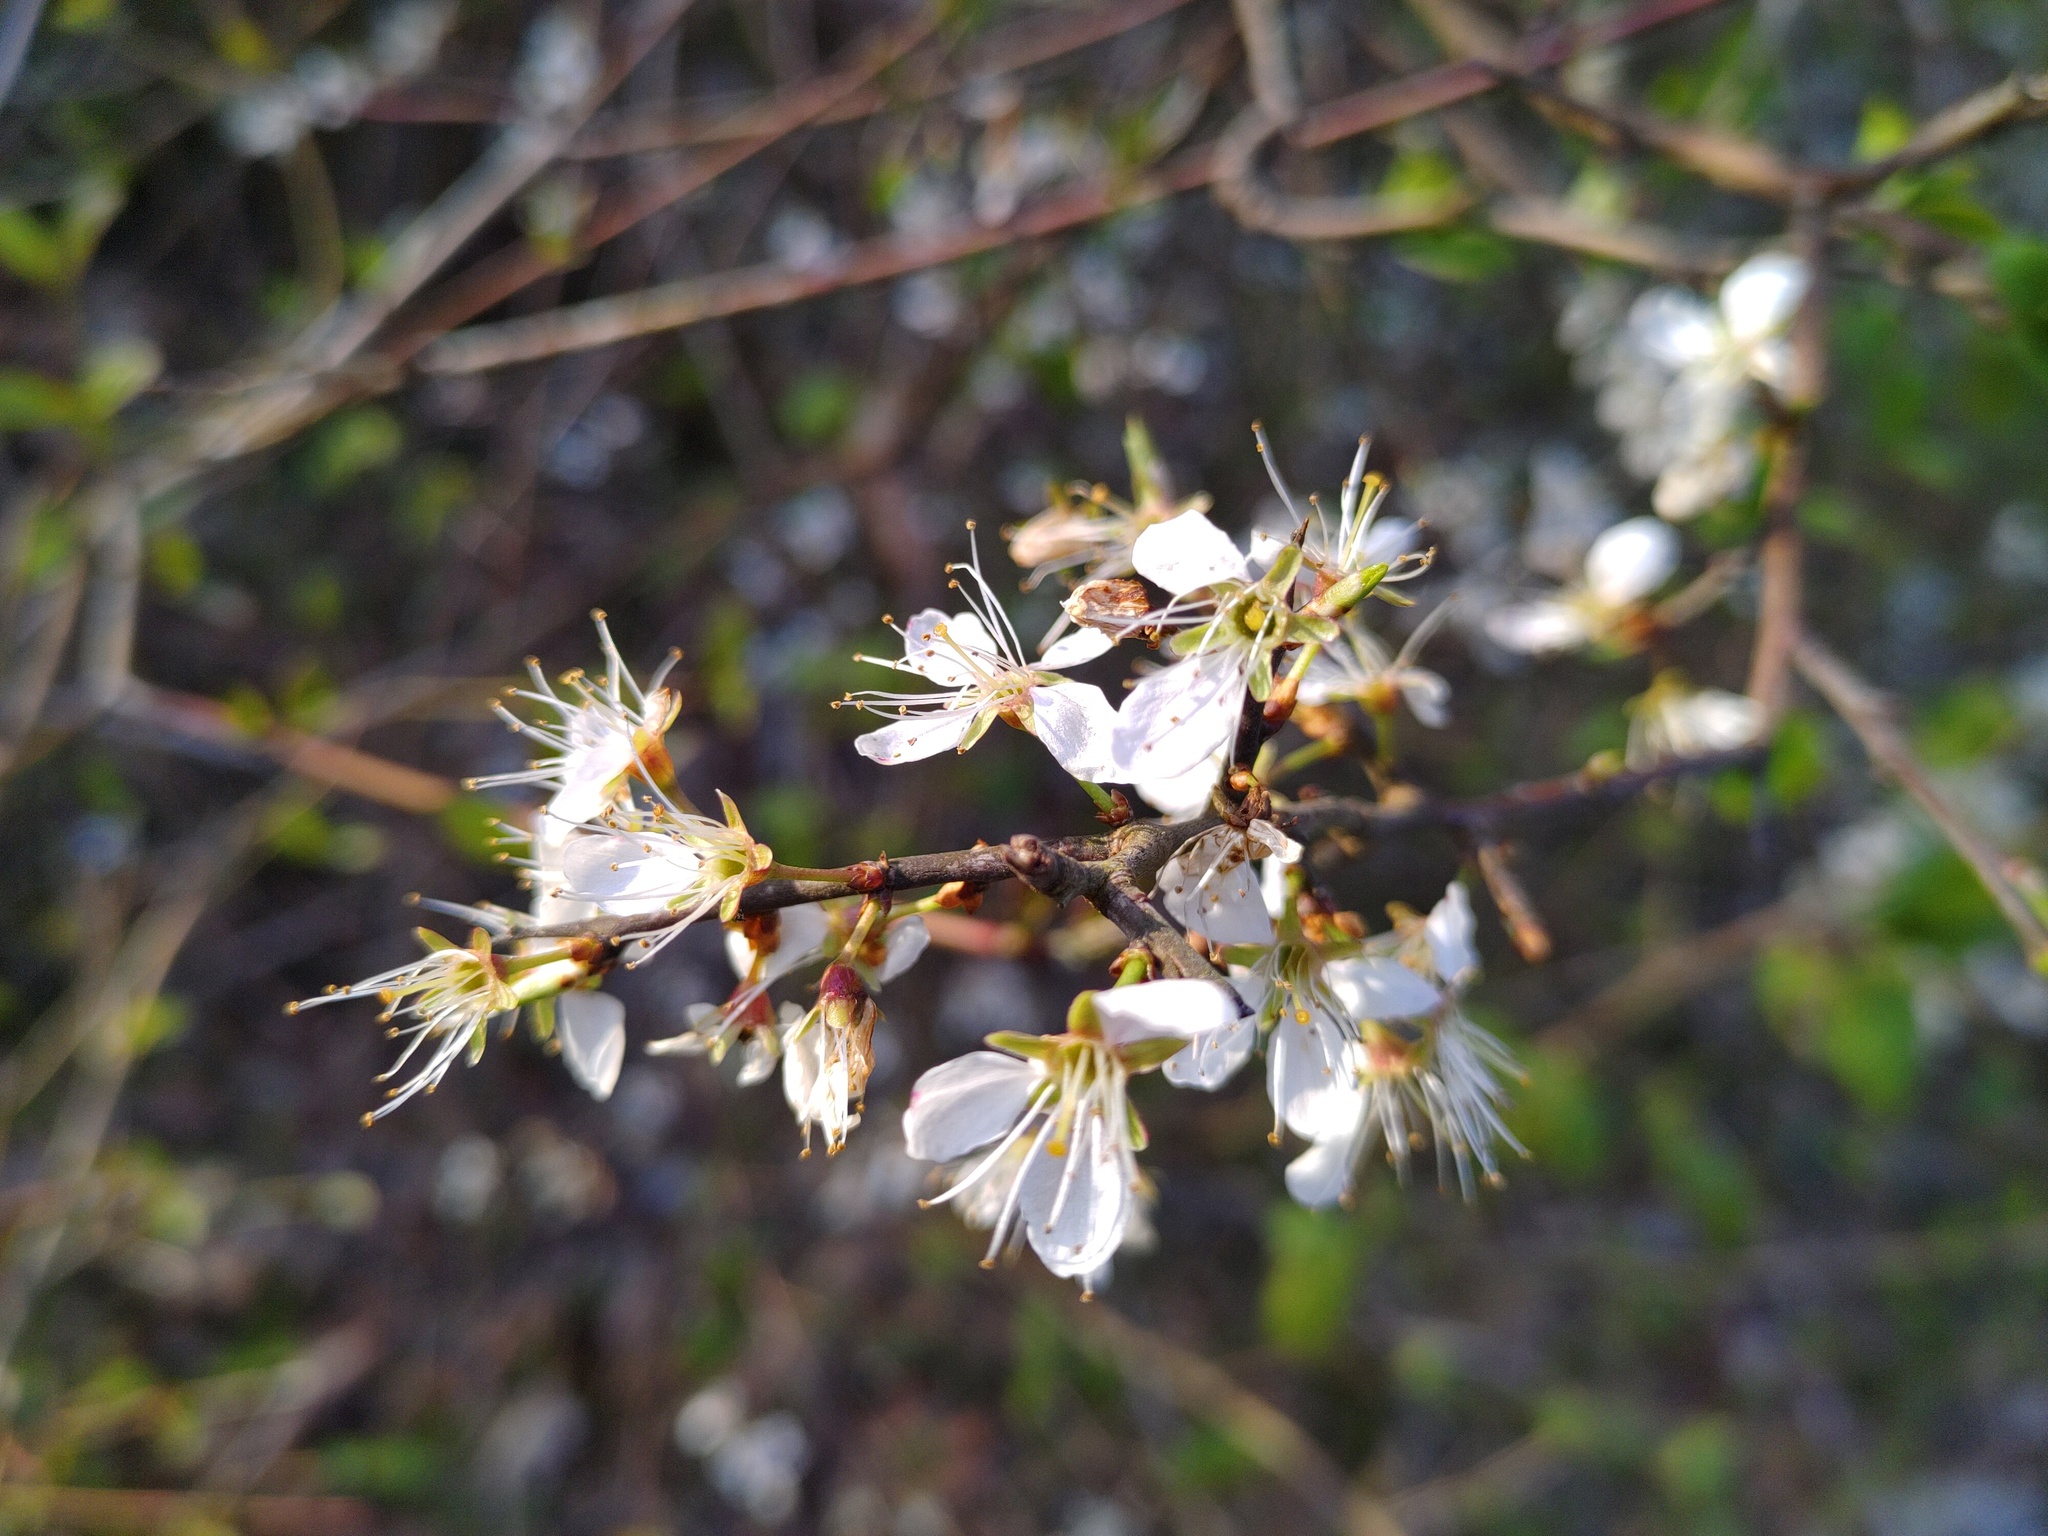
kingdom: Plantae
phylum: Tracheophyta
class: Magnoliopsida
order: Rosales
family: Rosaceae
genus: Prunus
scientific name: Prunus spinosa
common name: Blackthorn
